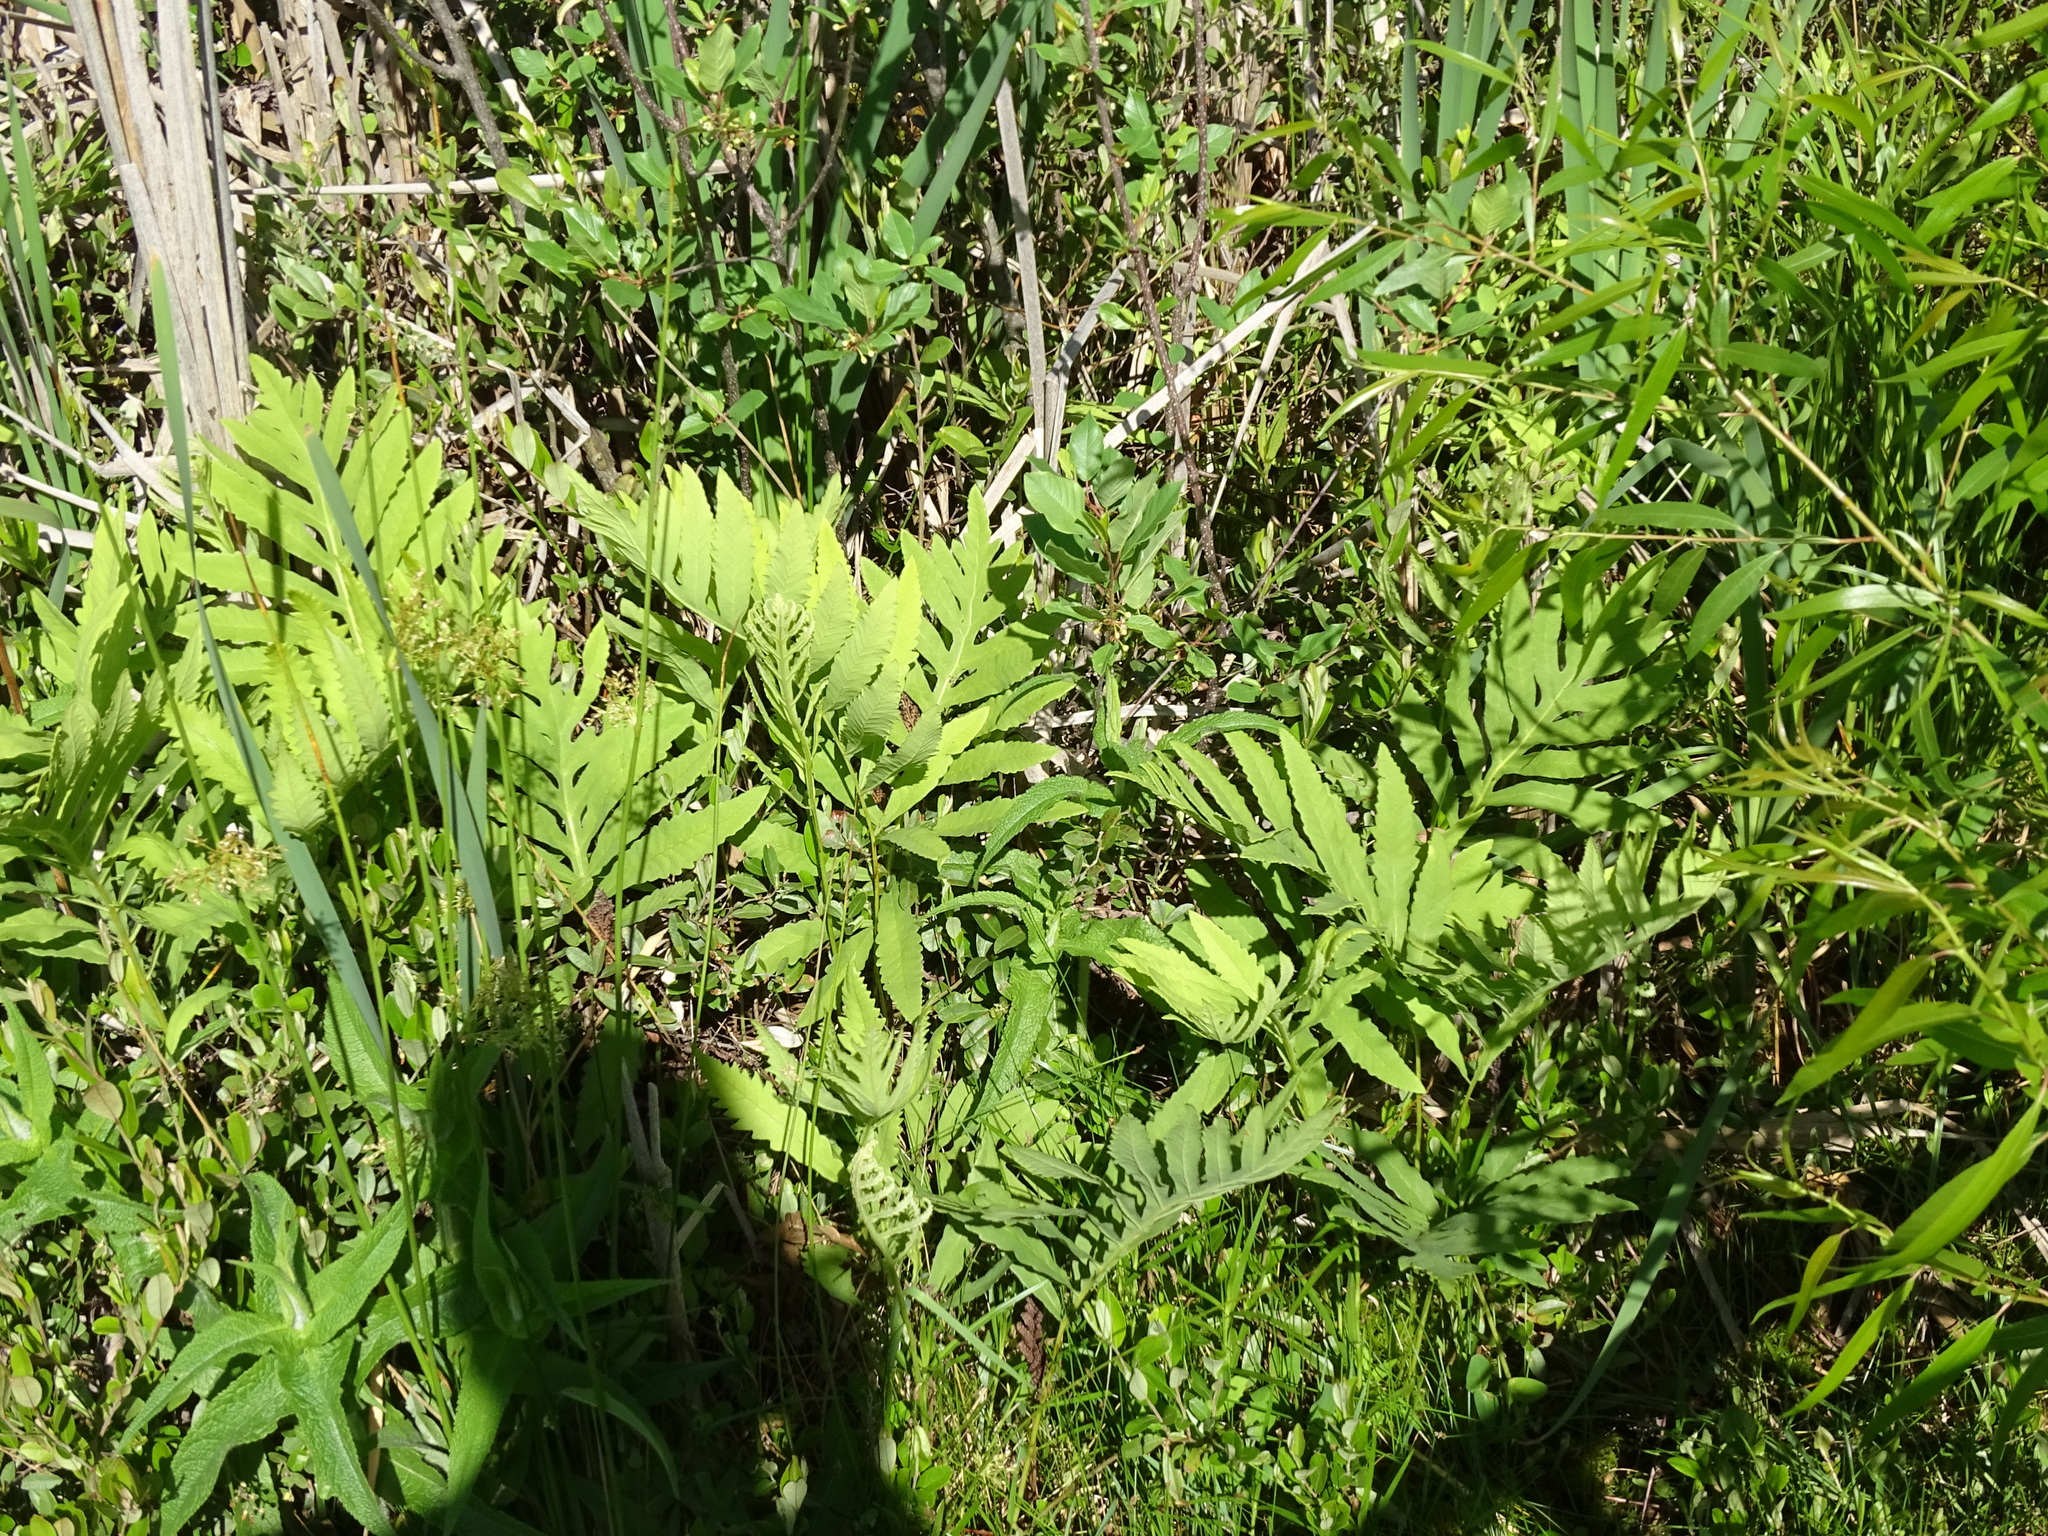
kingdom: Plantae
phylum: Tracheophyta
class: Polypodiopsida
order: Polypodiales
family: Onocleaceae
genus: Onoclea
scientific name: Onoclea sensibilis
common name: Sensitive fern
